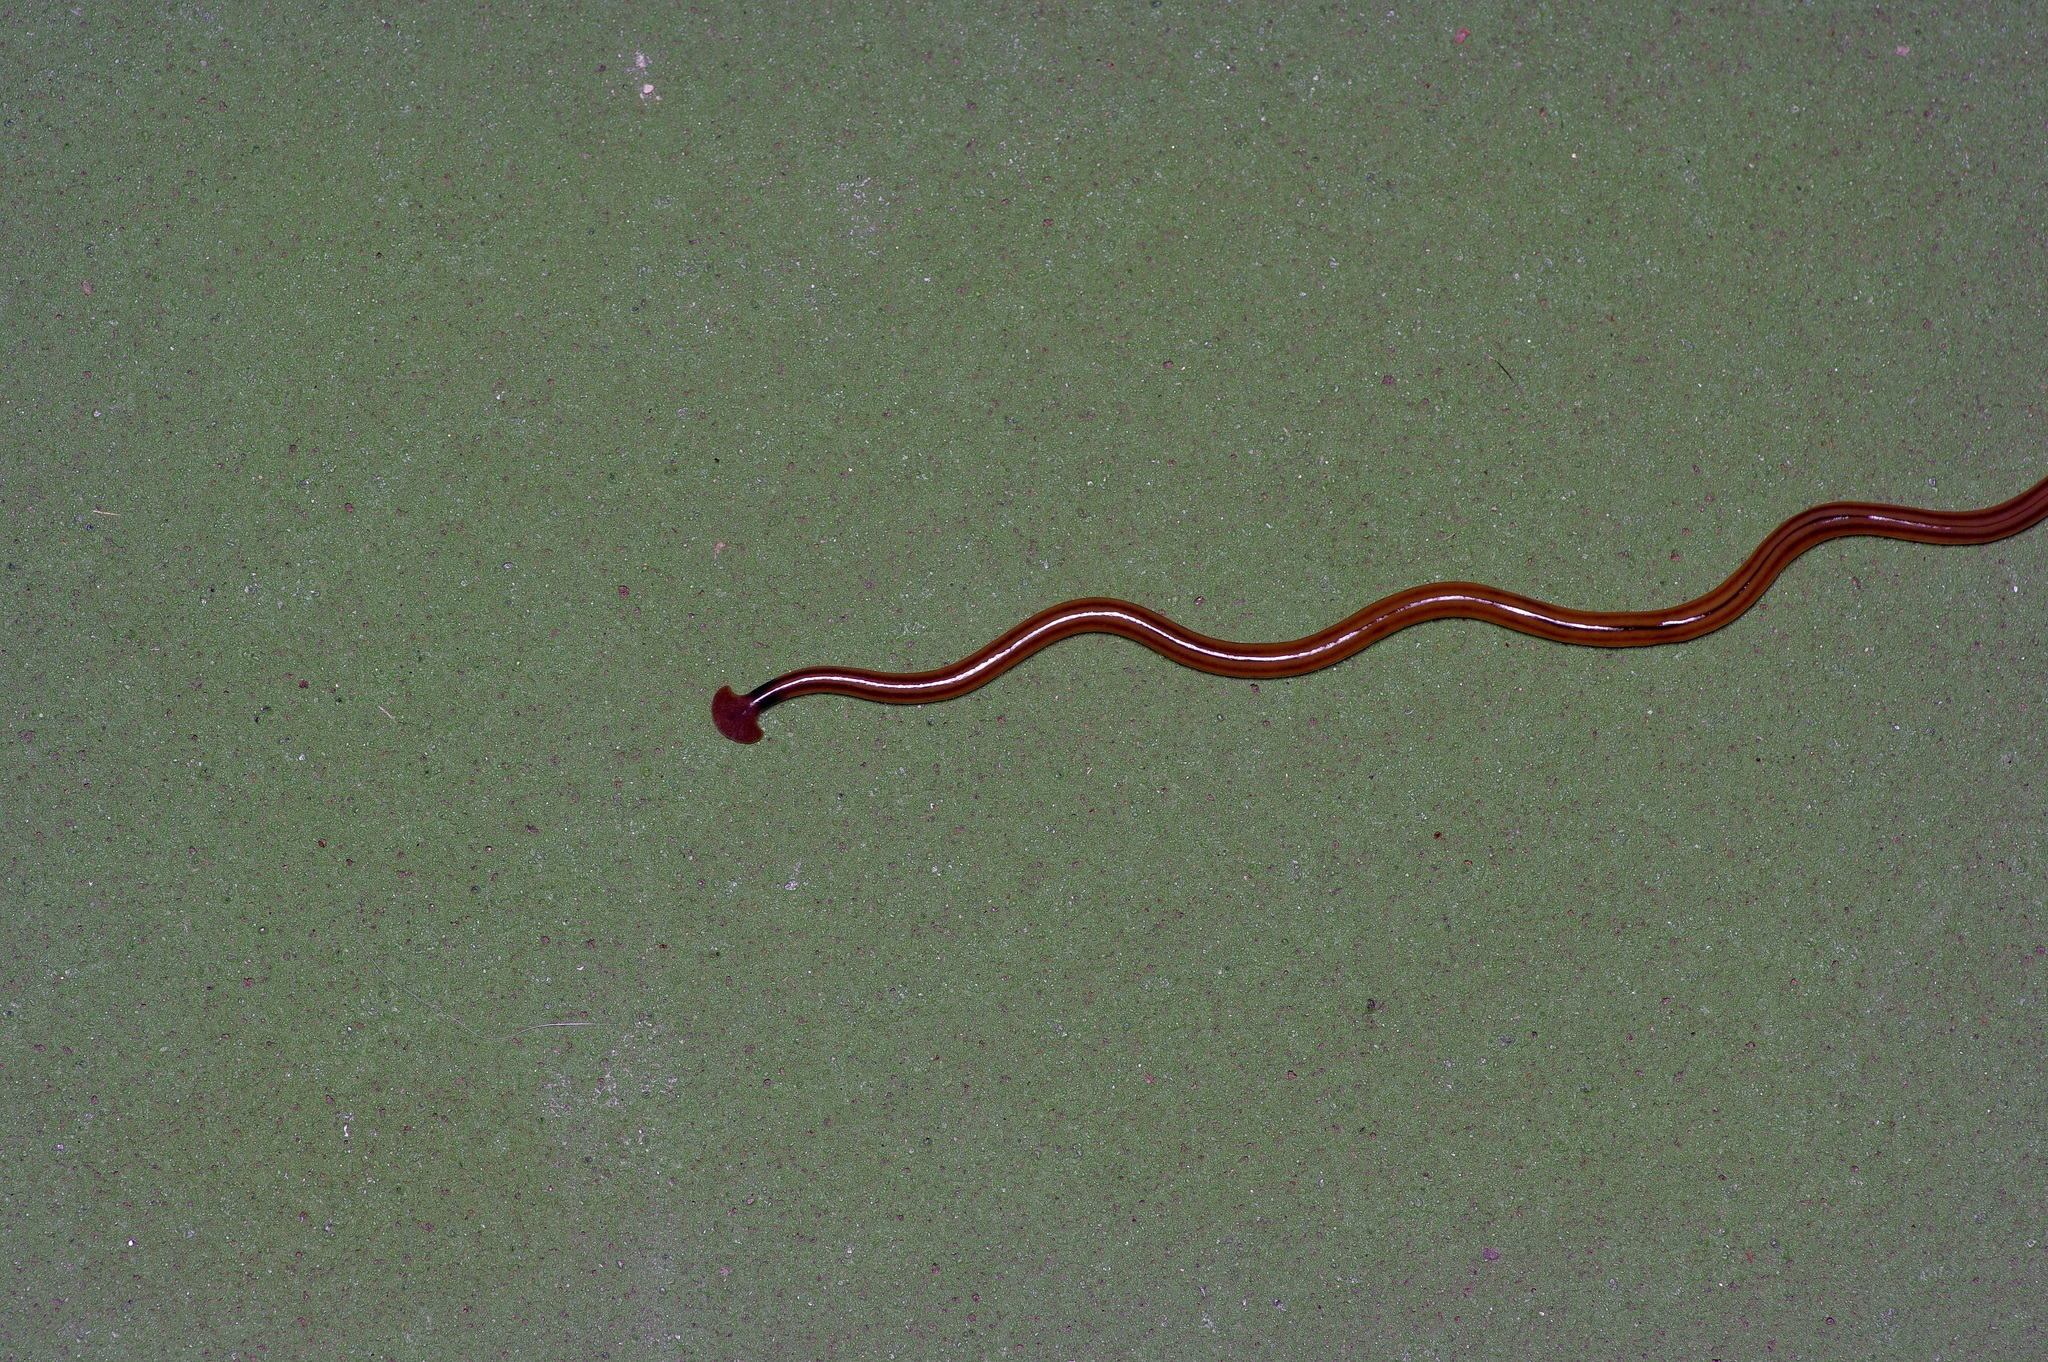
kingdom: Animalia
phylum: Platyhelminthes
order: Tricladida
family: Geoplanidae
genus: Bipalium
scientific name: Bipalium kewense
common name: Hammerhead flatworm
